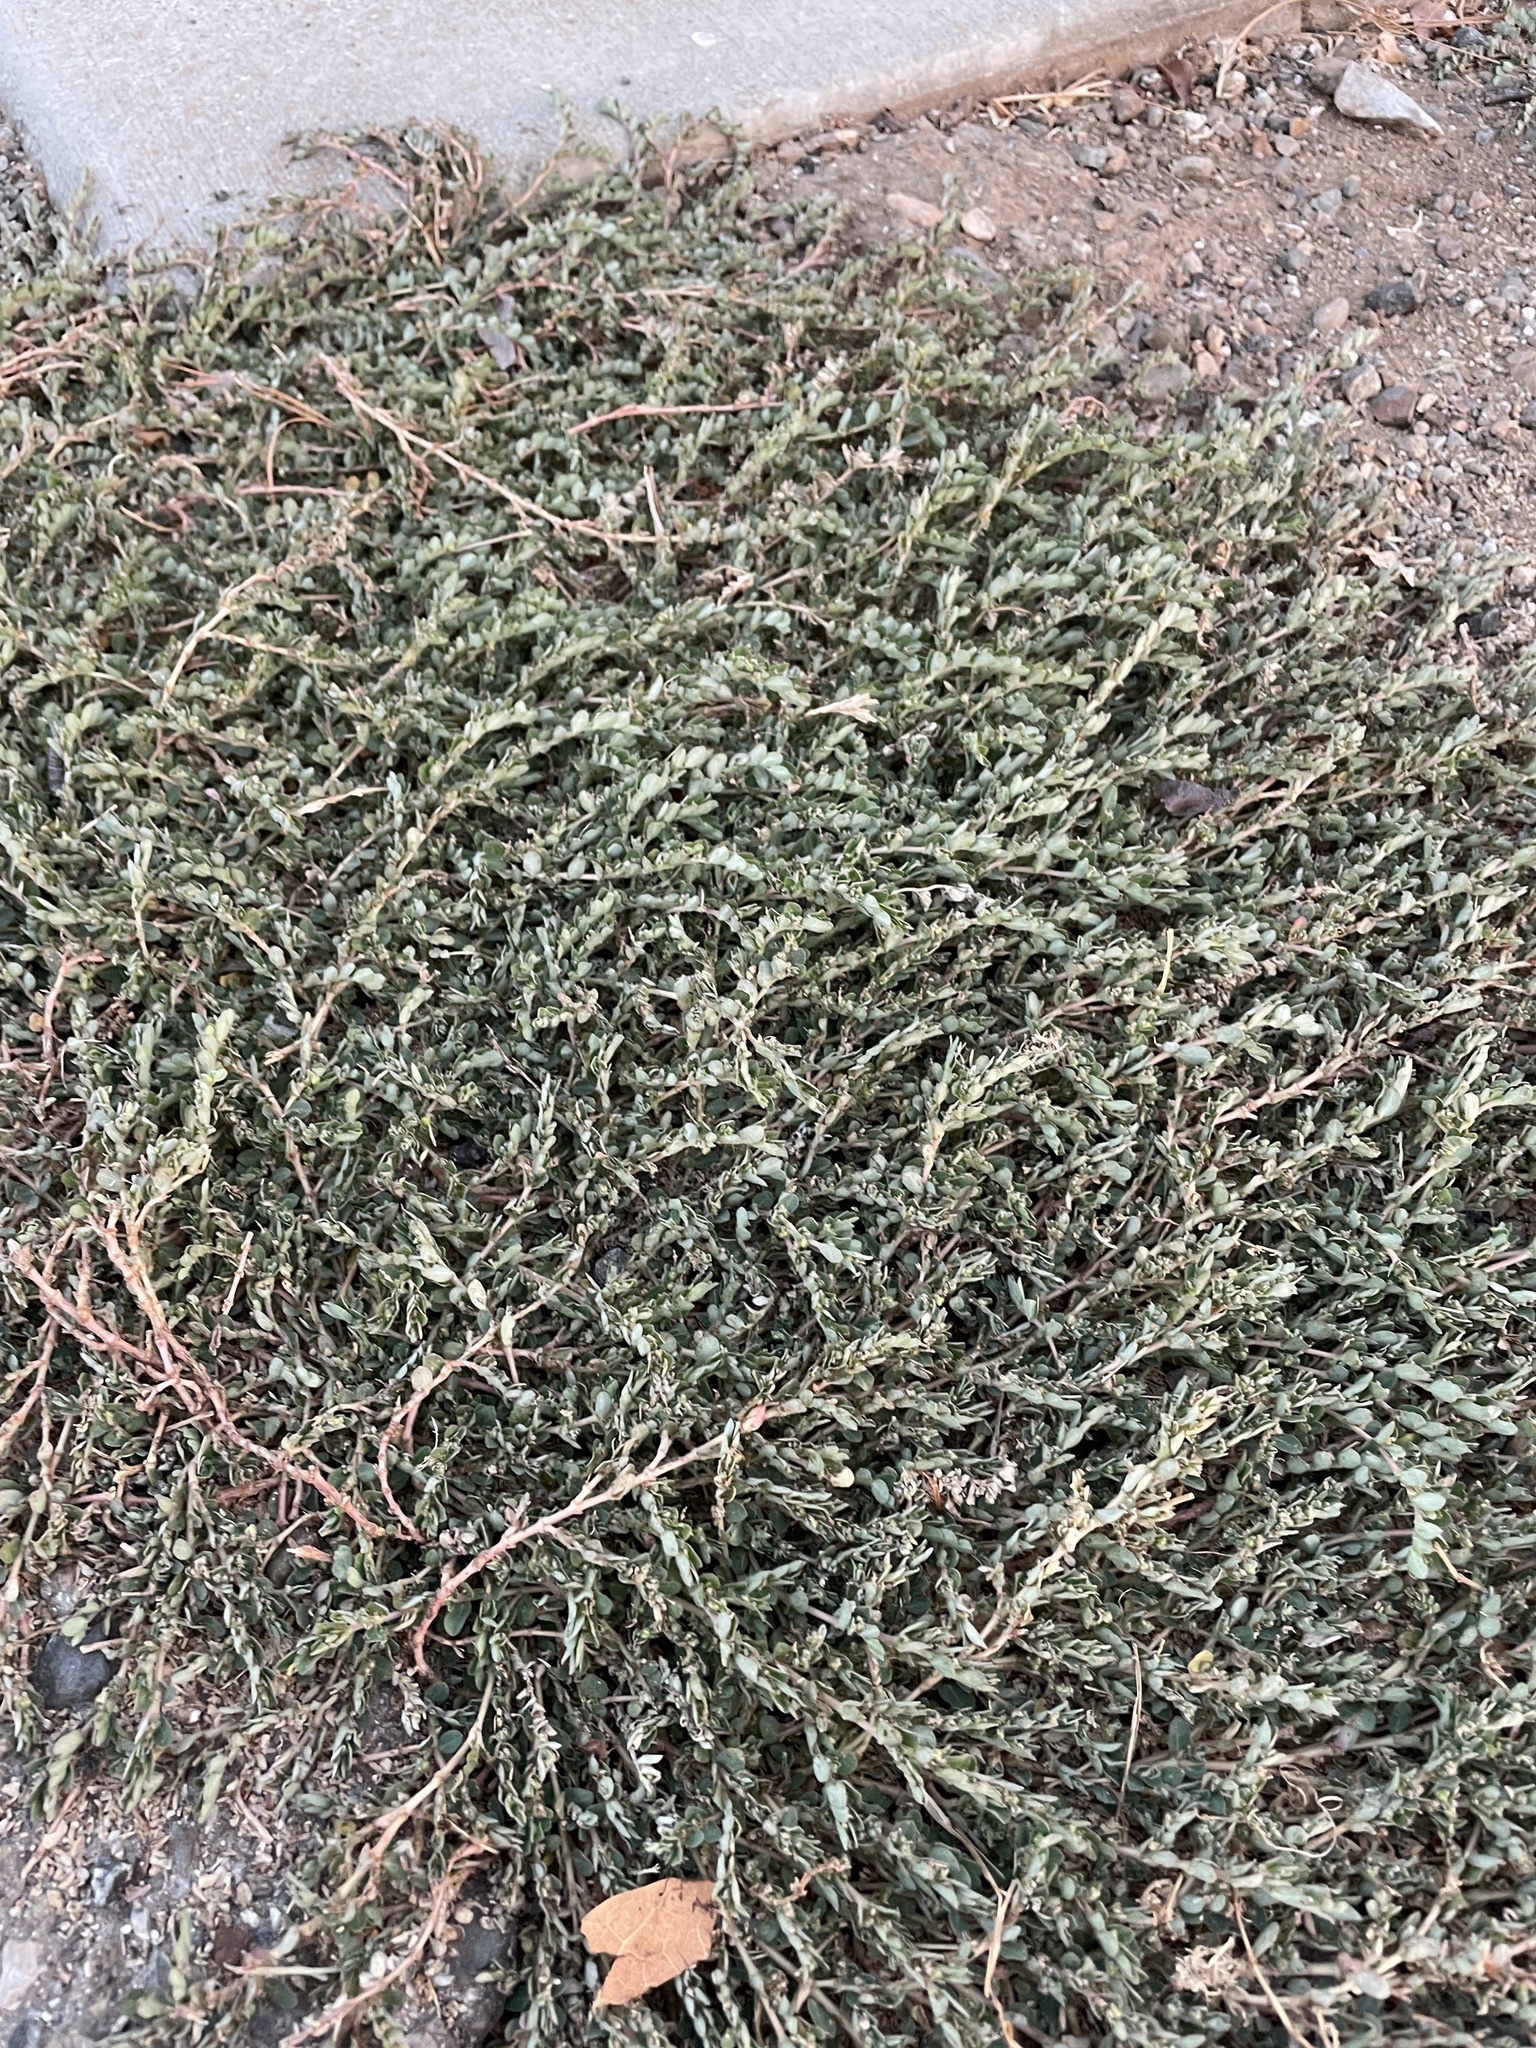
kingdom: Plantae
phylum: Tracheophyta
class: Magnoliopsida
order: Malpighiales
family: Euphorbiaceae
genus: Euphorbia
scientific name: Euphorbia prostrata
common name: Prostrate sandmat
